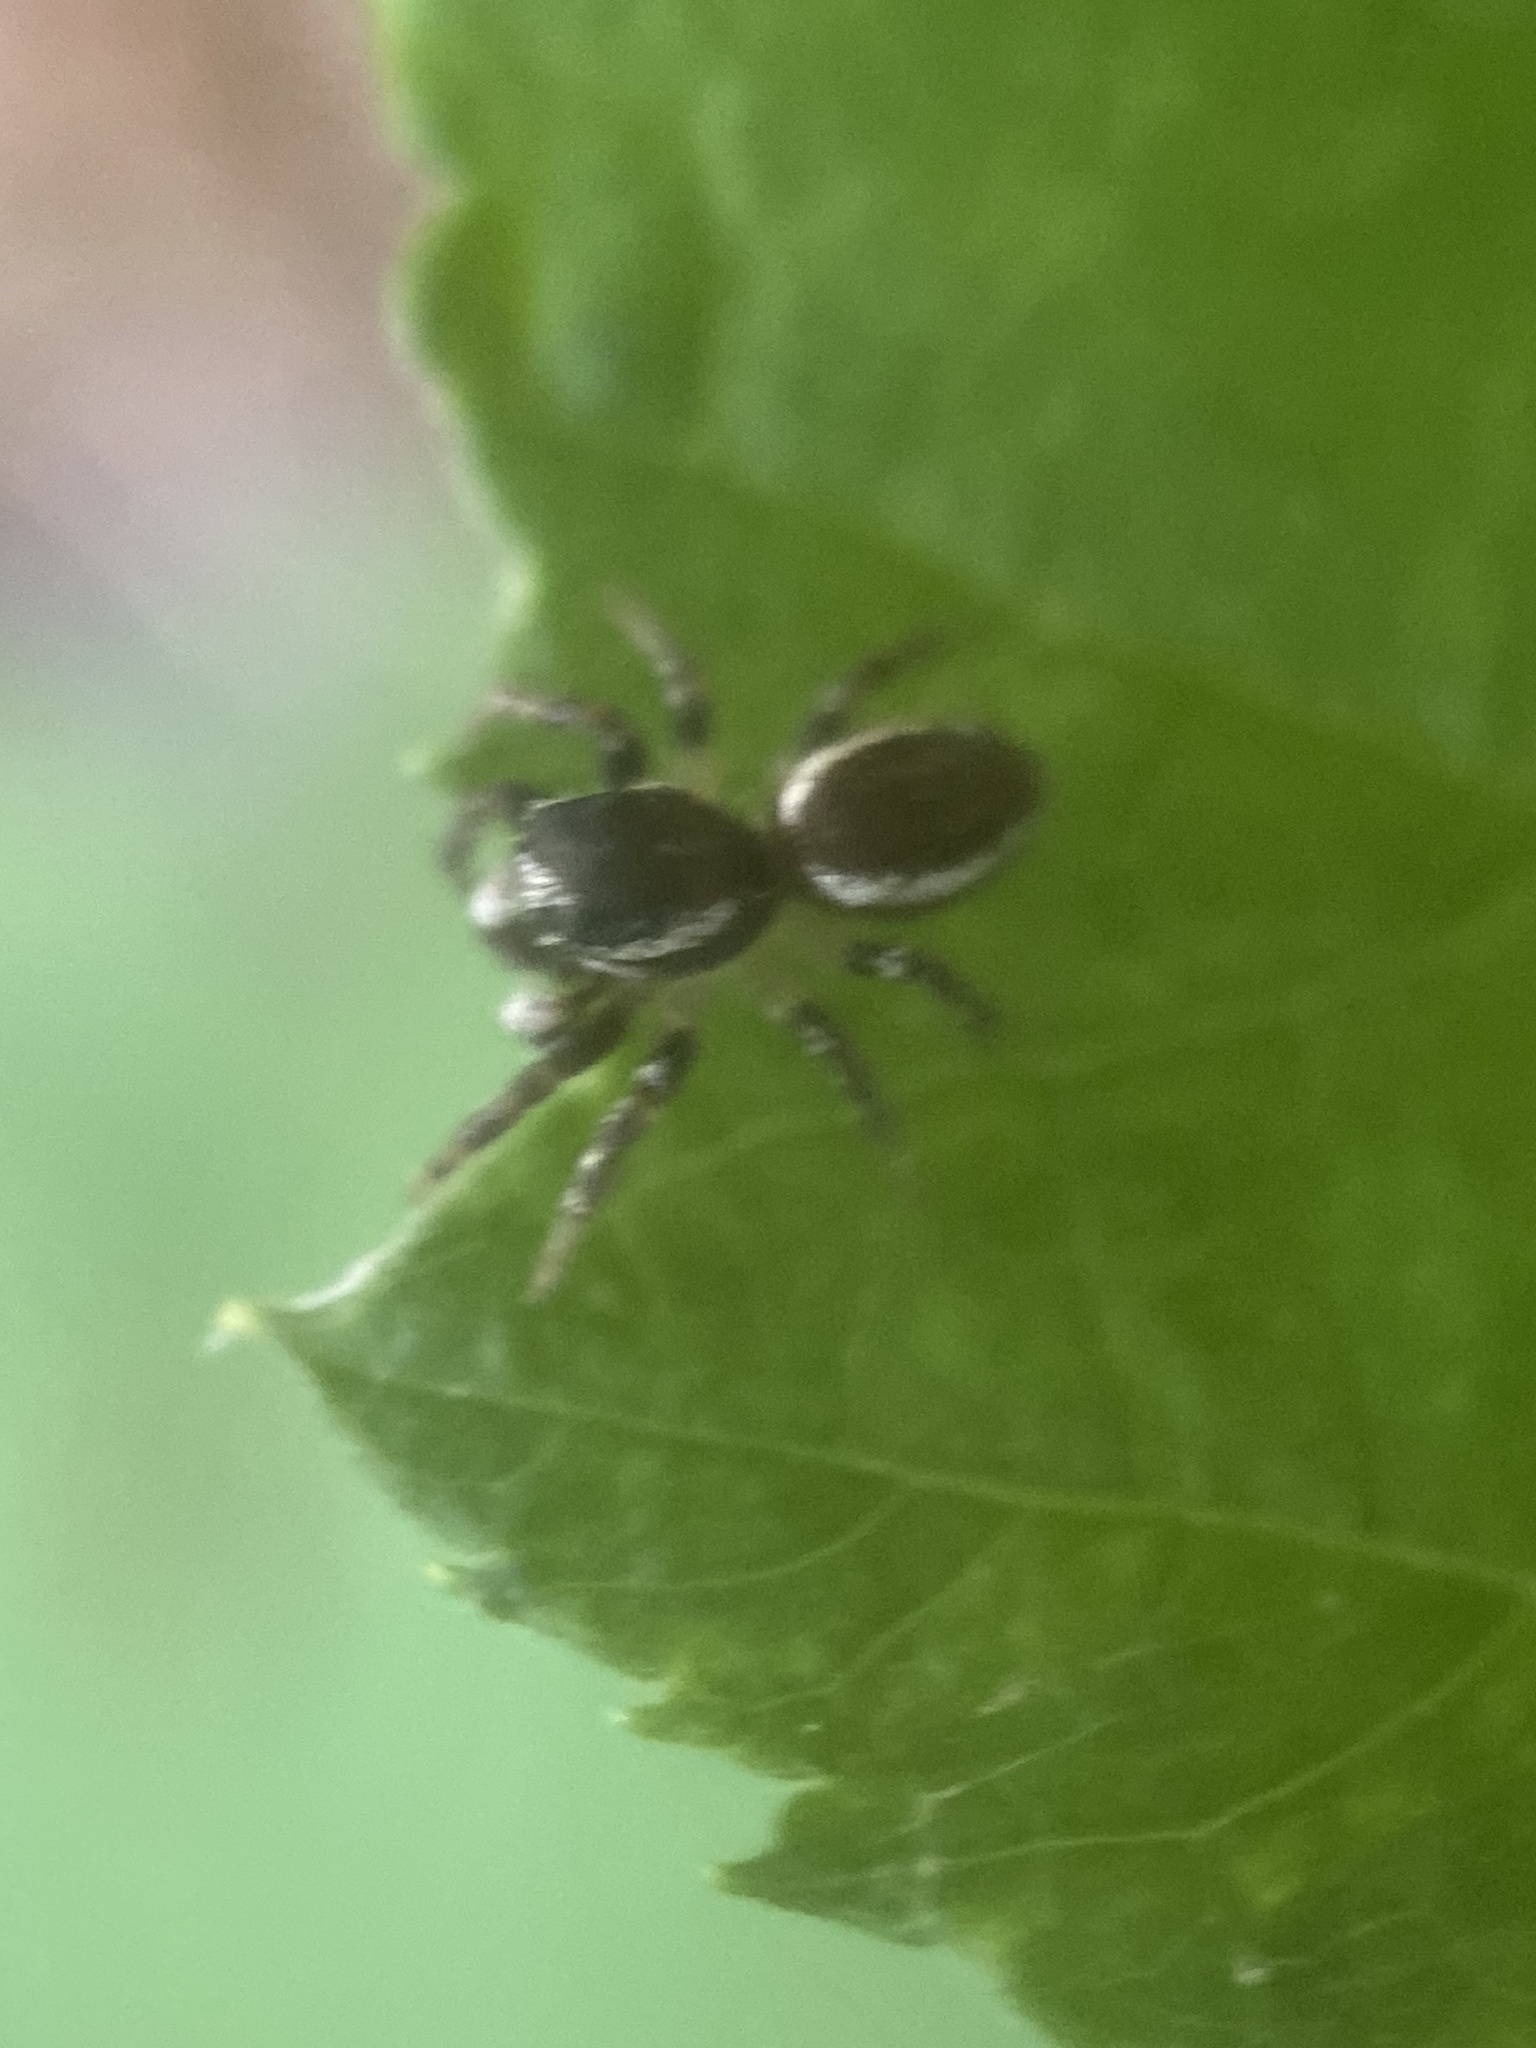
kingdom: Animalia
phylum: Arthropoda
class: Arachnida
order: Araneae
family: Salticidae
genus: Pelegrina
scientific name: Pelegrina proterva
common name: Common white-cheeked jumping spider
